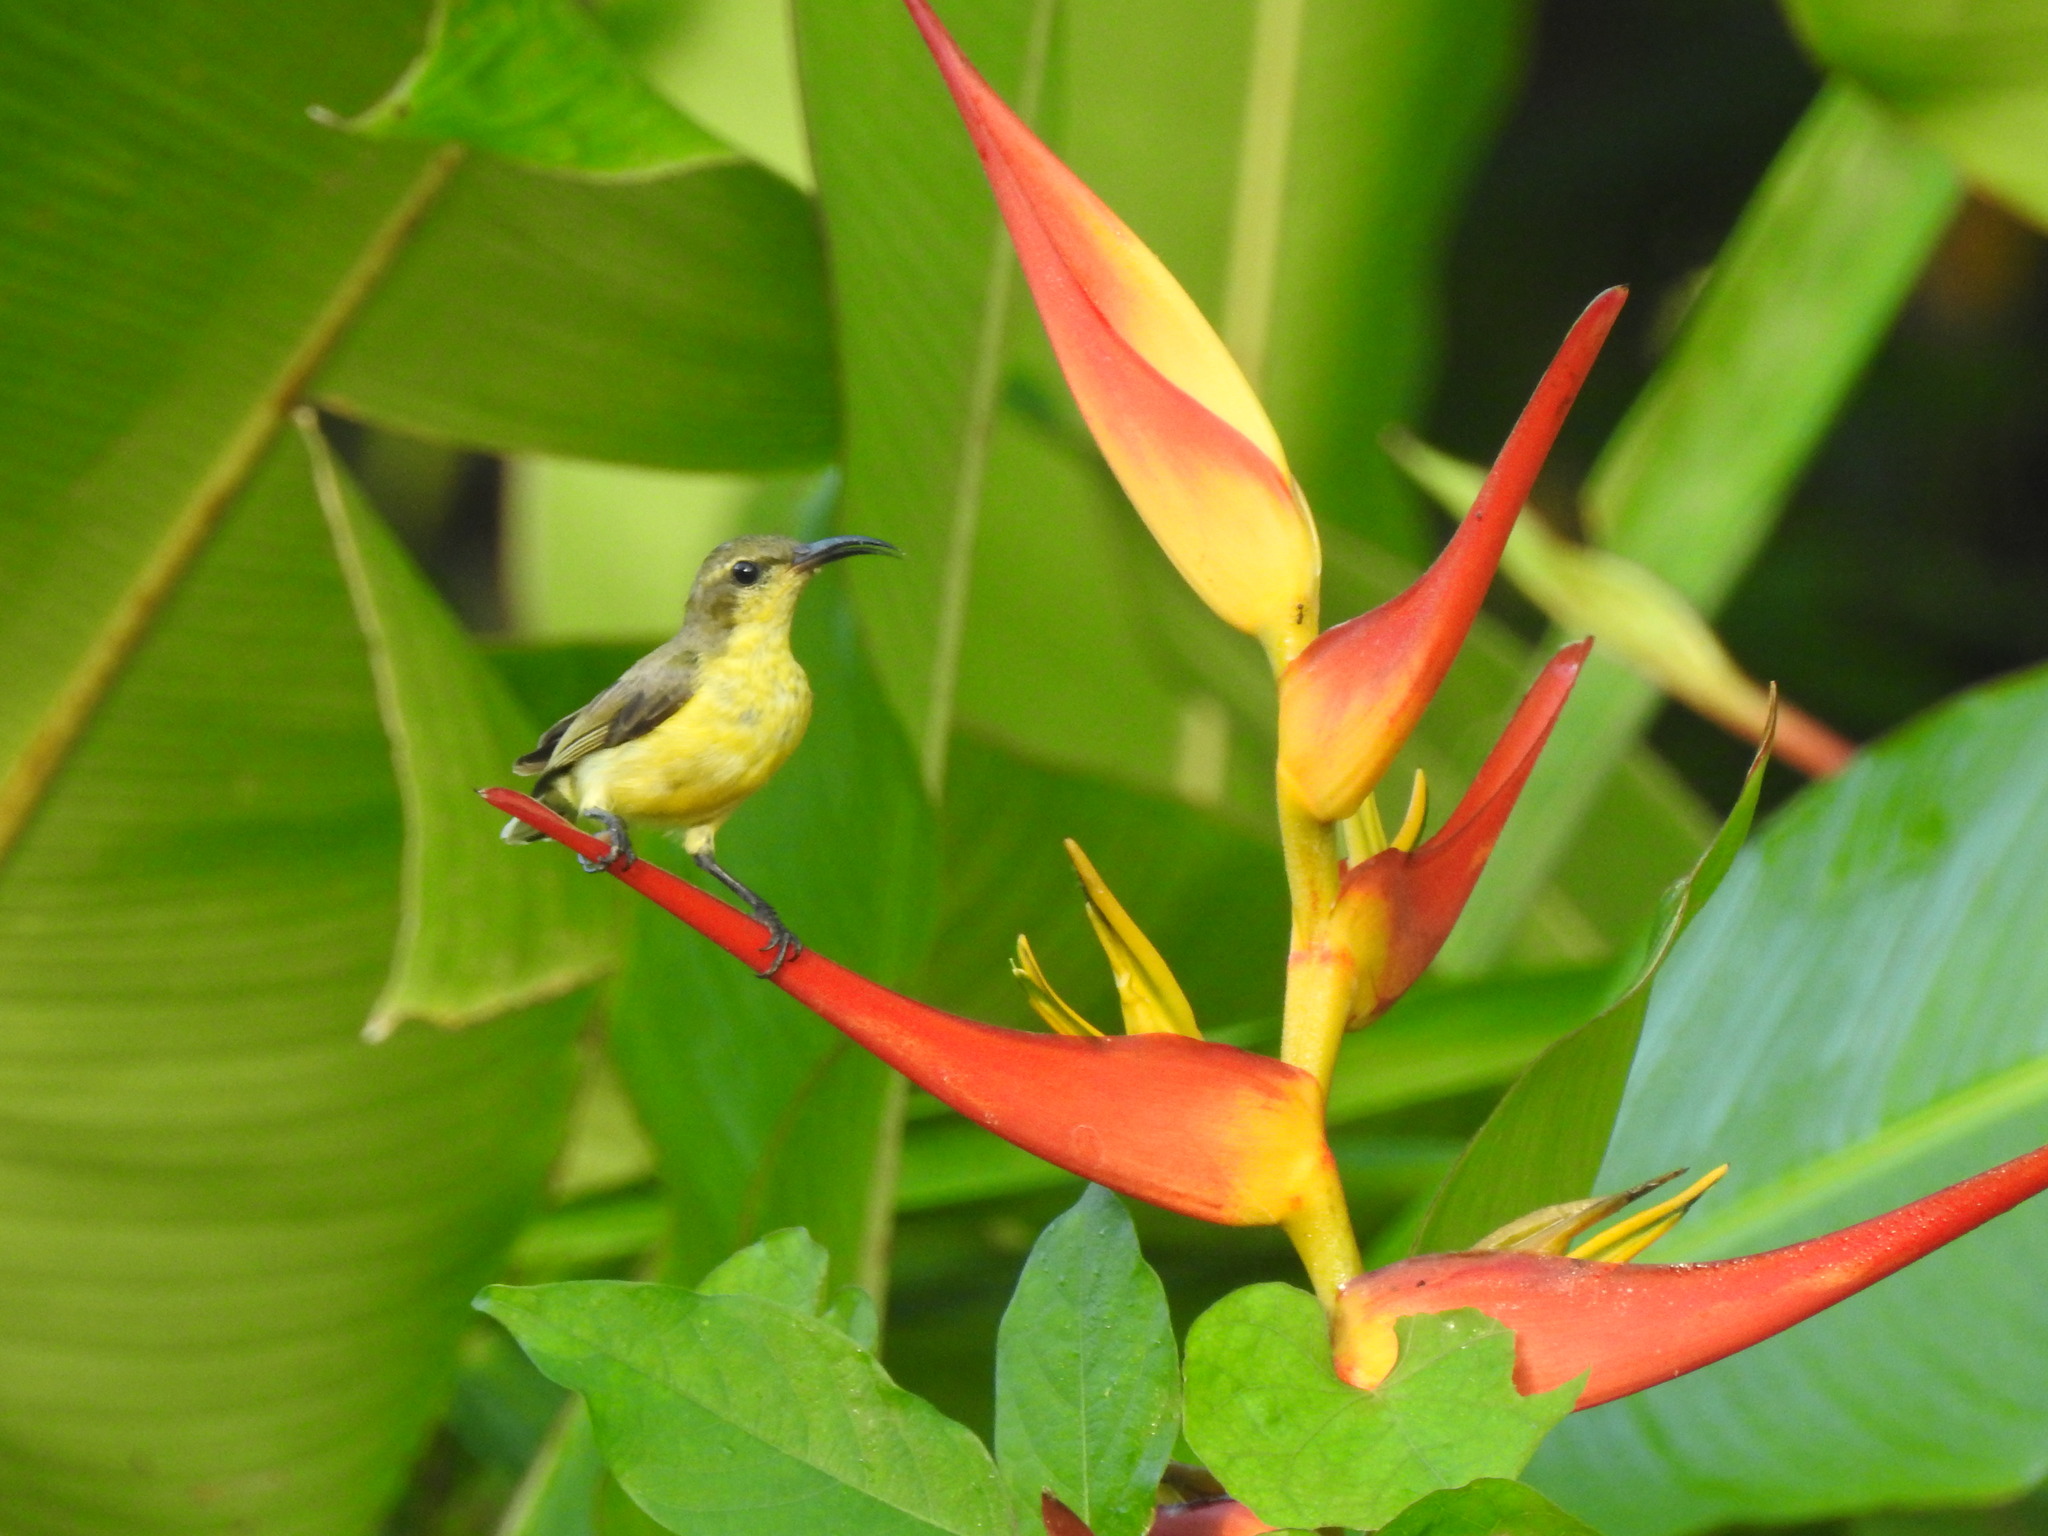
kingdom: Animalia
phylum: Chordata
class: Aves
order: Passeriformes
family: Nectariniidae
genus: Cinnyris
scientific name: Cinnyris jugularis
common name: Olive-backed sunbird
